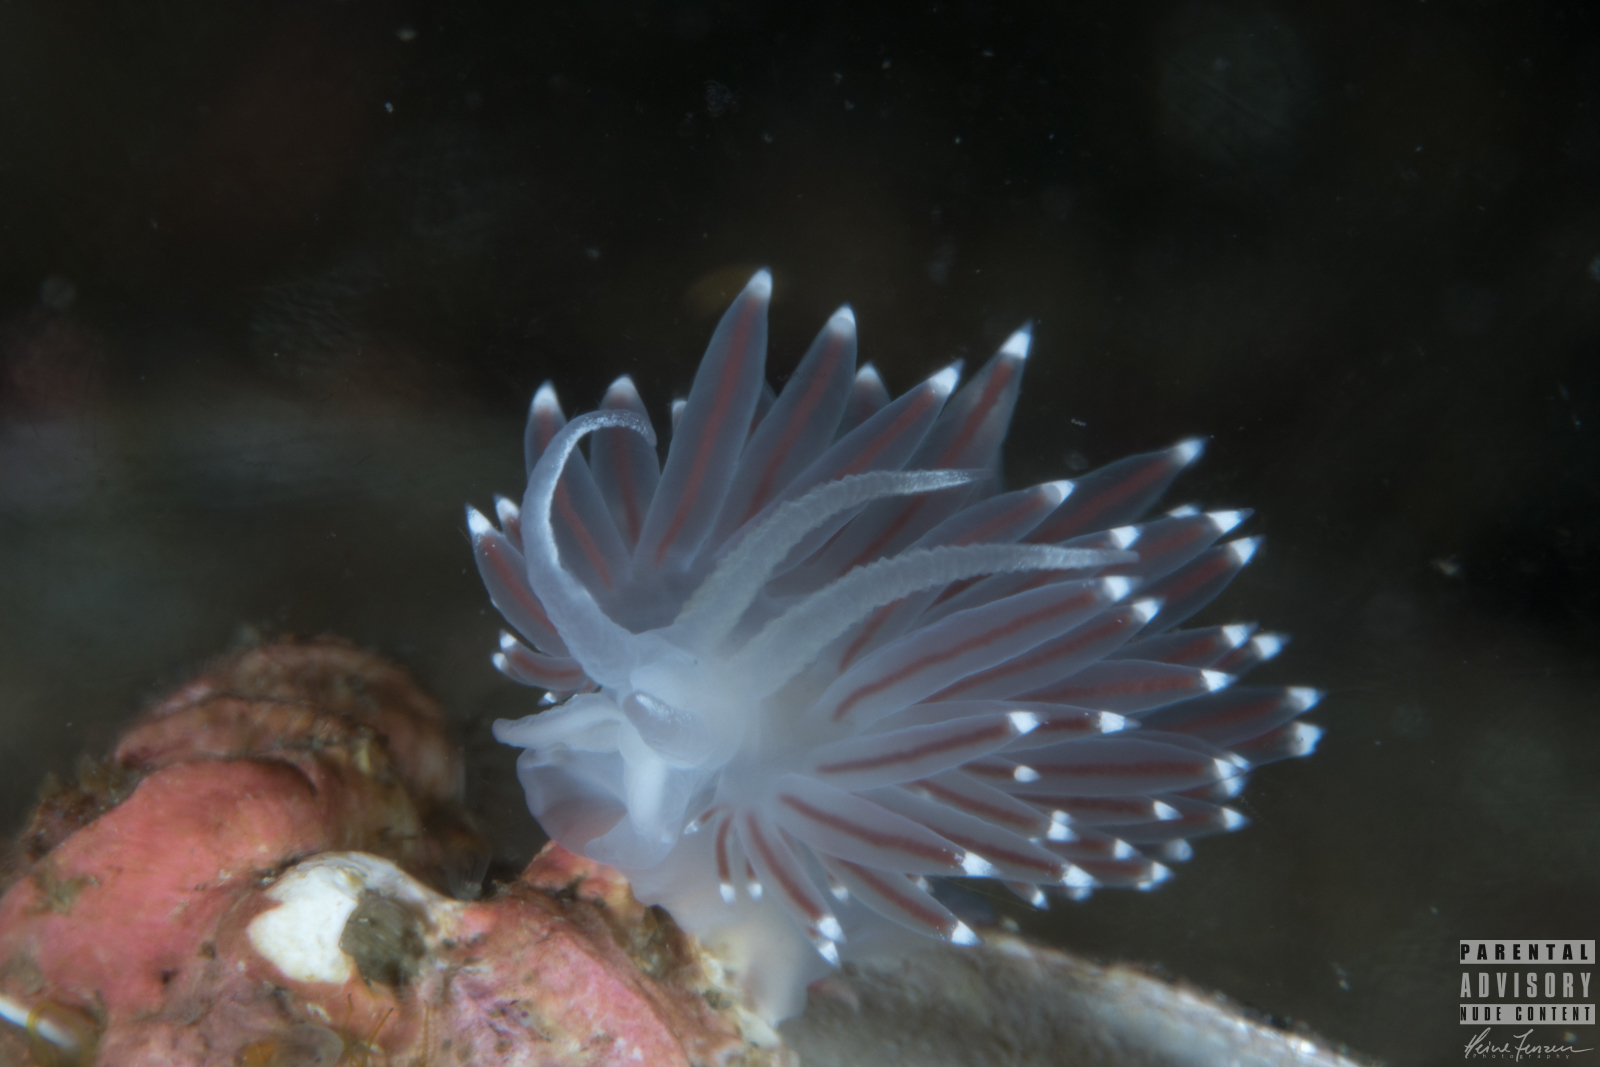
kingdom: Animalia
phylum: Mollusca
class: Gastropoda
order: Nudibranchia
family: Coryphellidae
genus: Coryphella
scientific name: Coryphella browni
